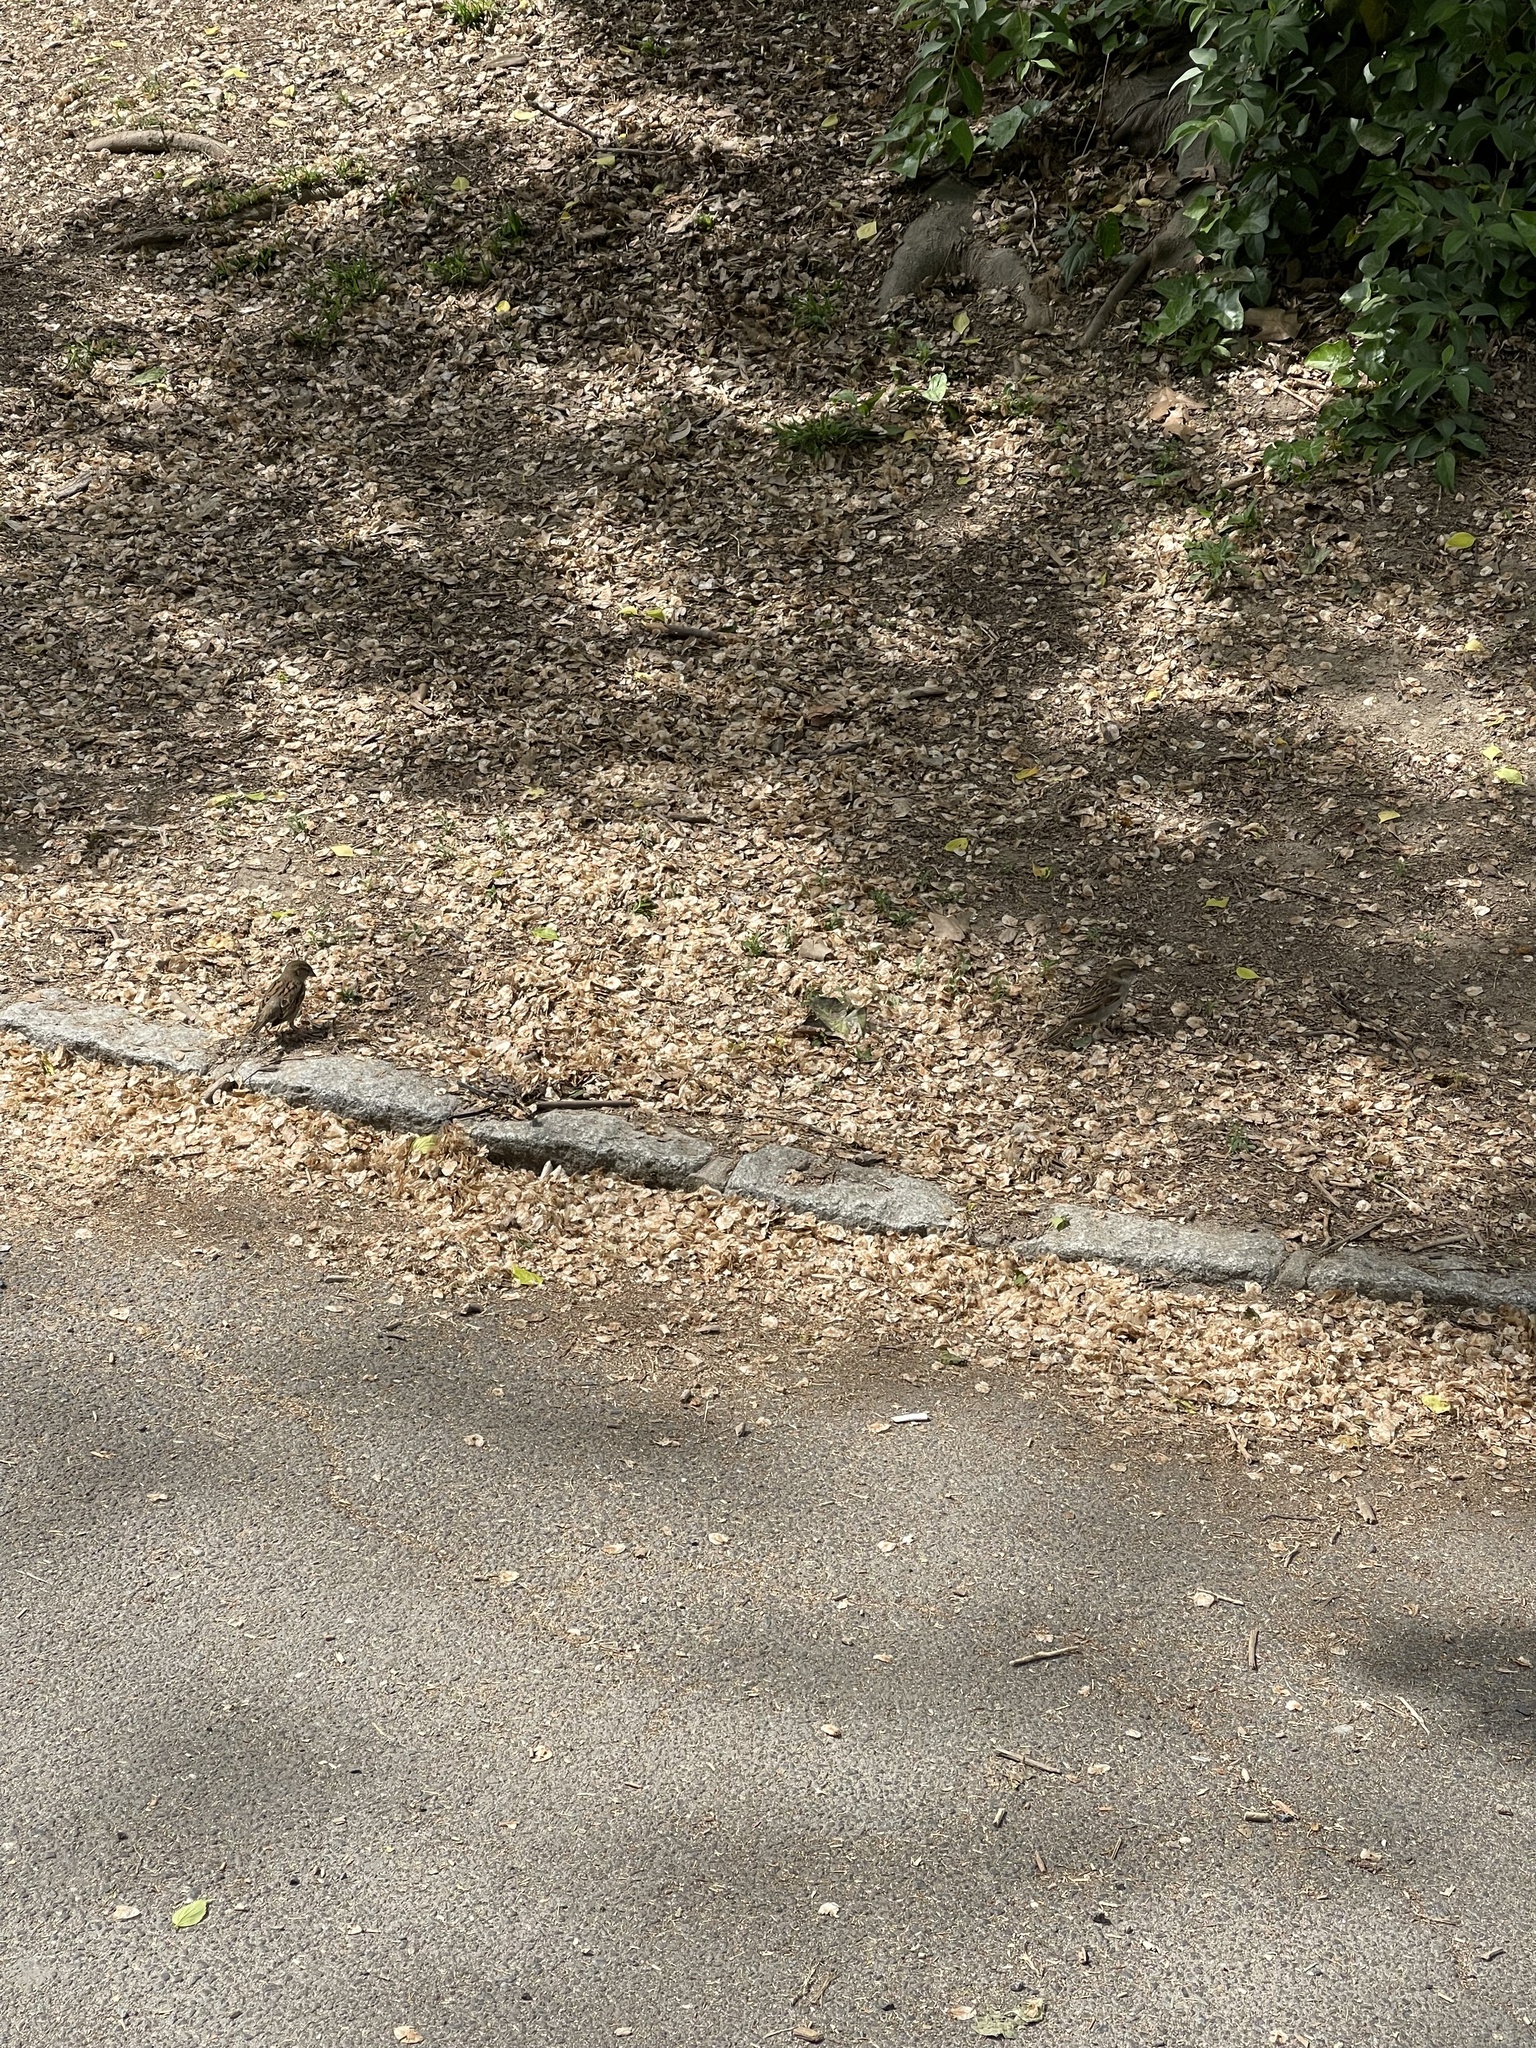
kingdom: Animalia
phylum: Chordata
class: Aves
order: Passeriformes
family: Passeridae
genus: Passer
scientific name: Passer domesticus
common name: House sparrow
